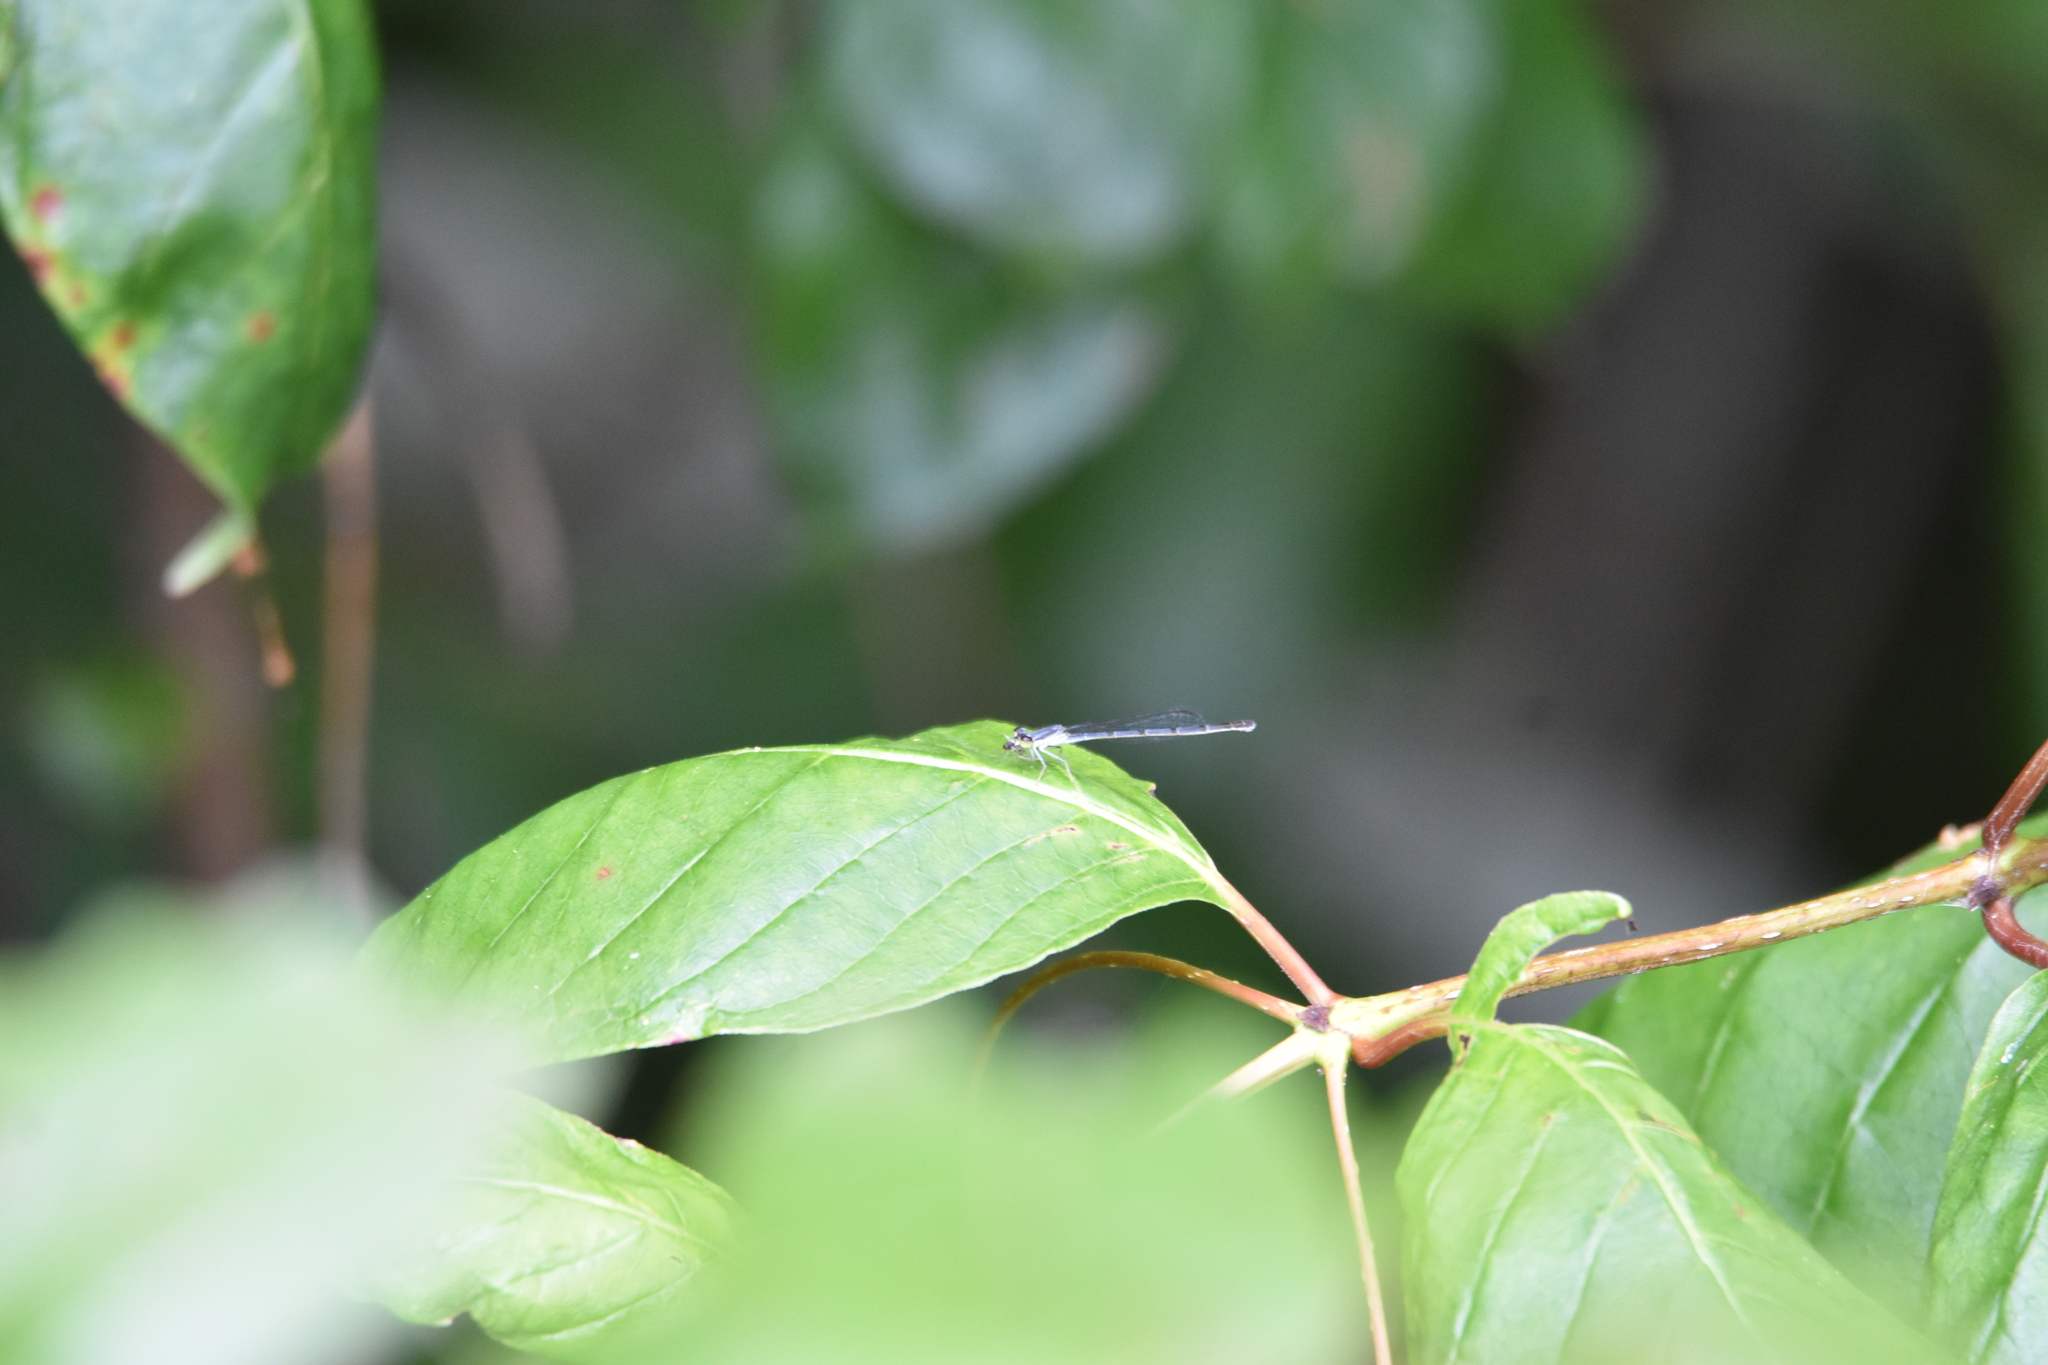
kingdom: Animalia
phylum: Arthropoda
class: Insecta
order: Odonata
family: Coenagrionidae
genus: Ischnura
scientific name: Ischnura posita
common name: Fragile forktail
